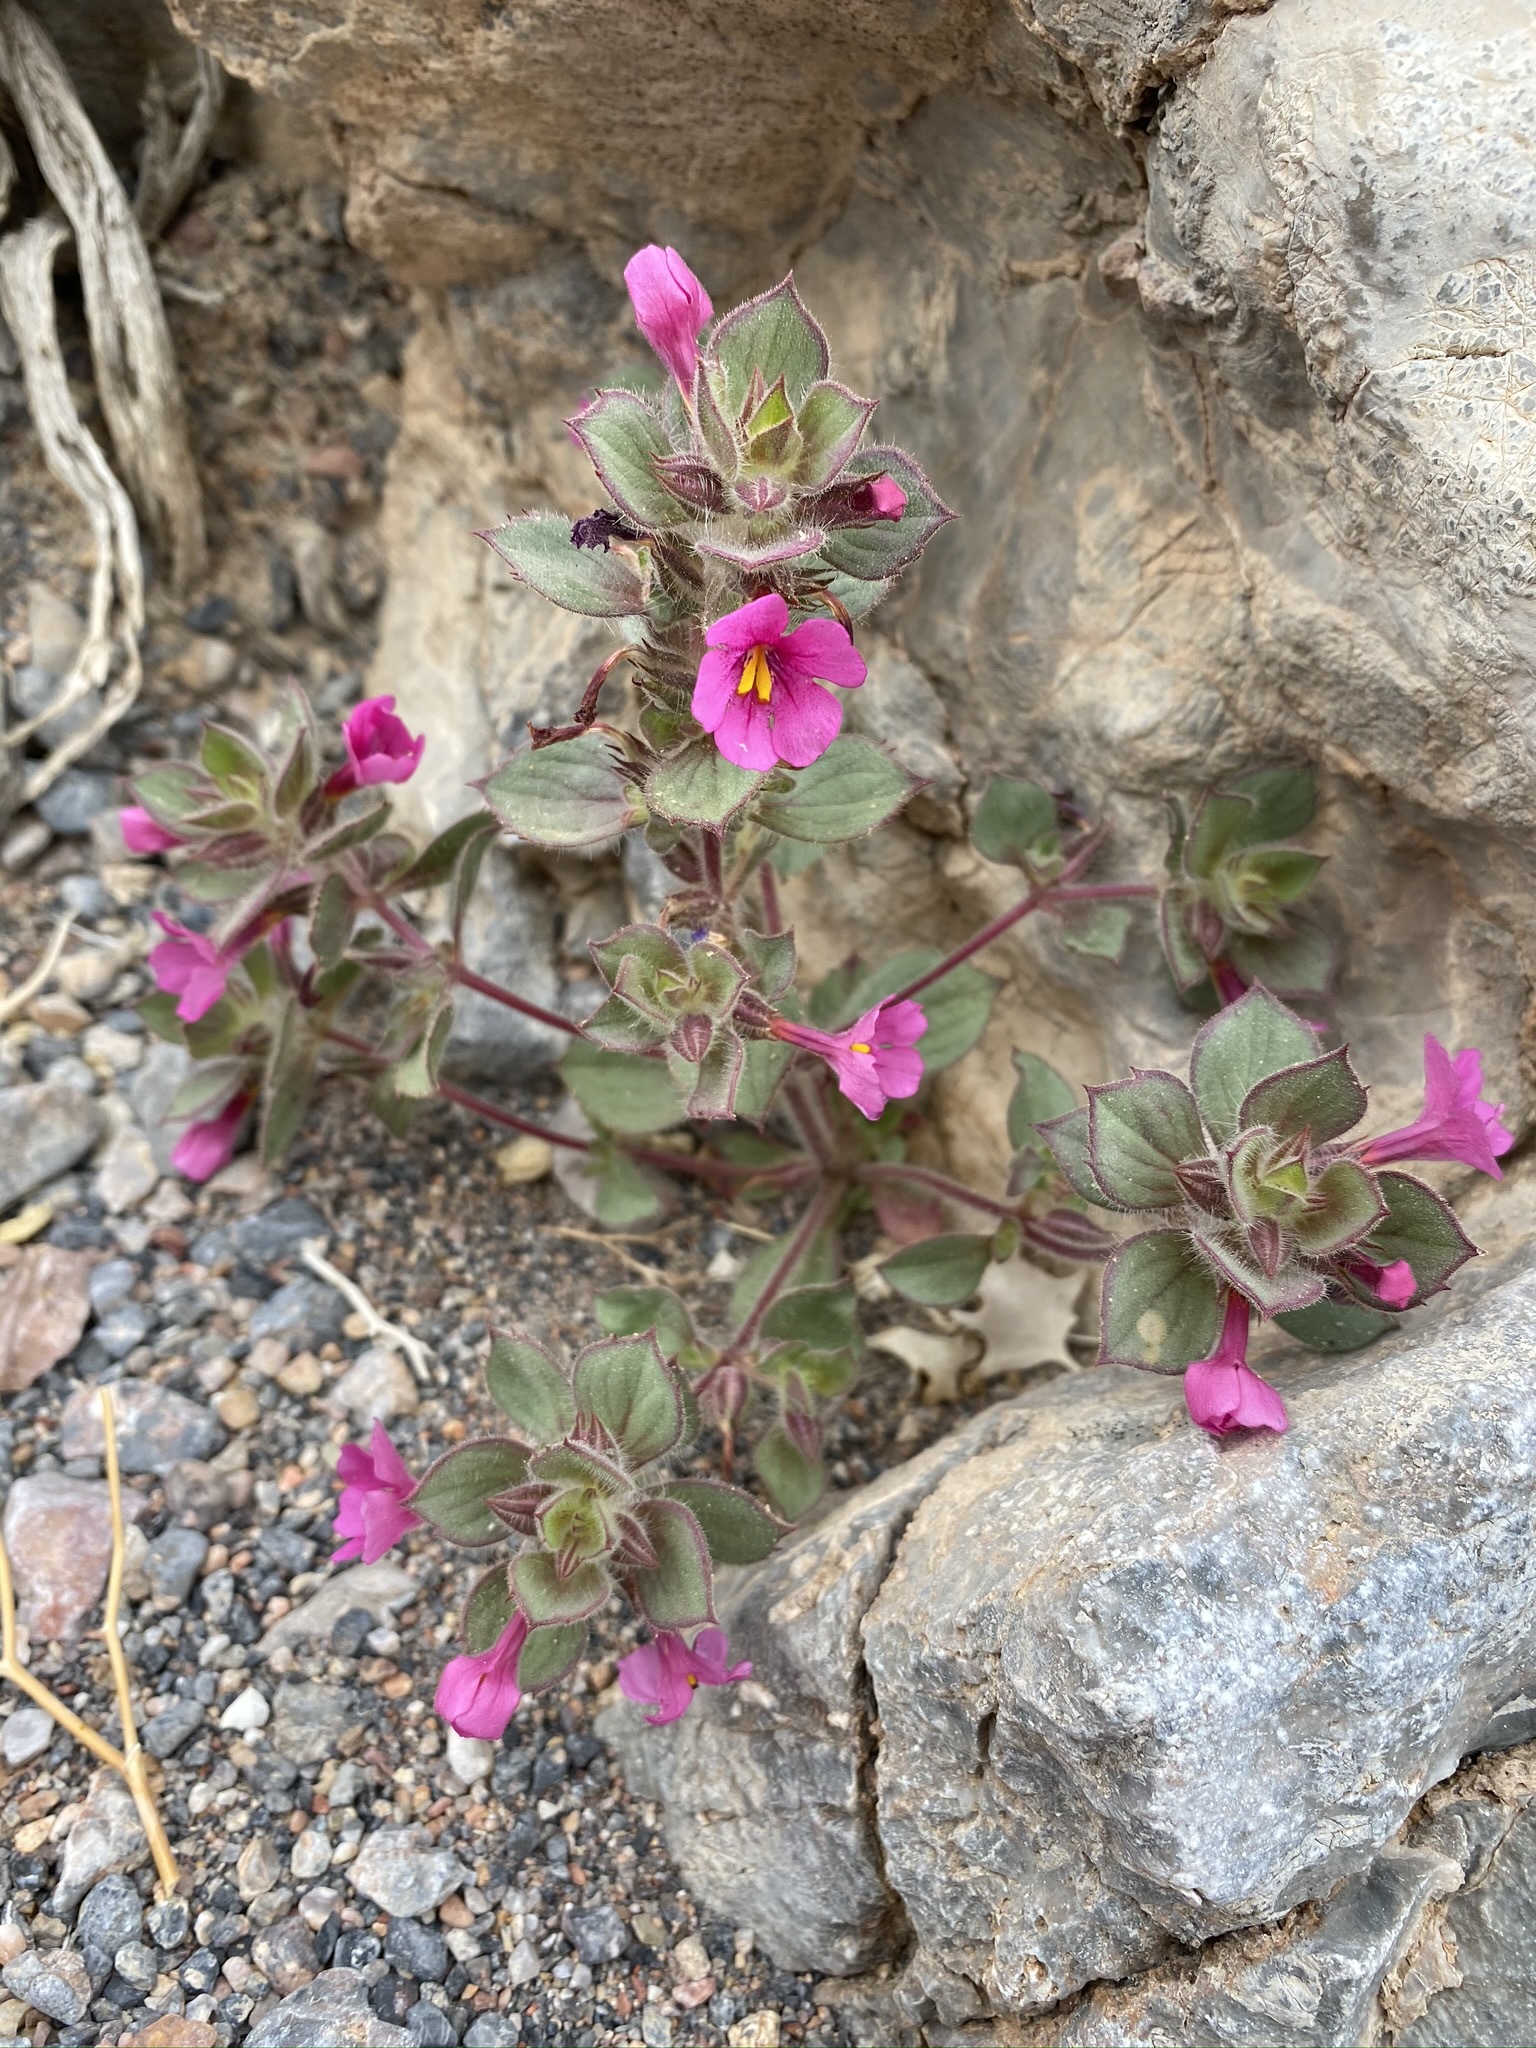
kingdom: Plantae
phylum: Tracheophyta
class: Magnoliopsida
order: Lamiales
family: Phrymaceae
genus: Diplacus
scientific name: Diplacus bigelovii
